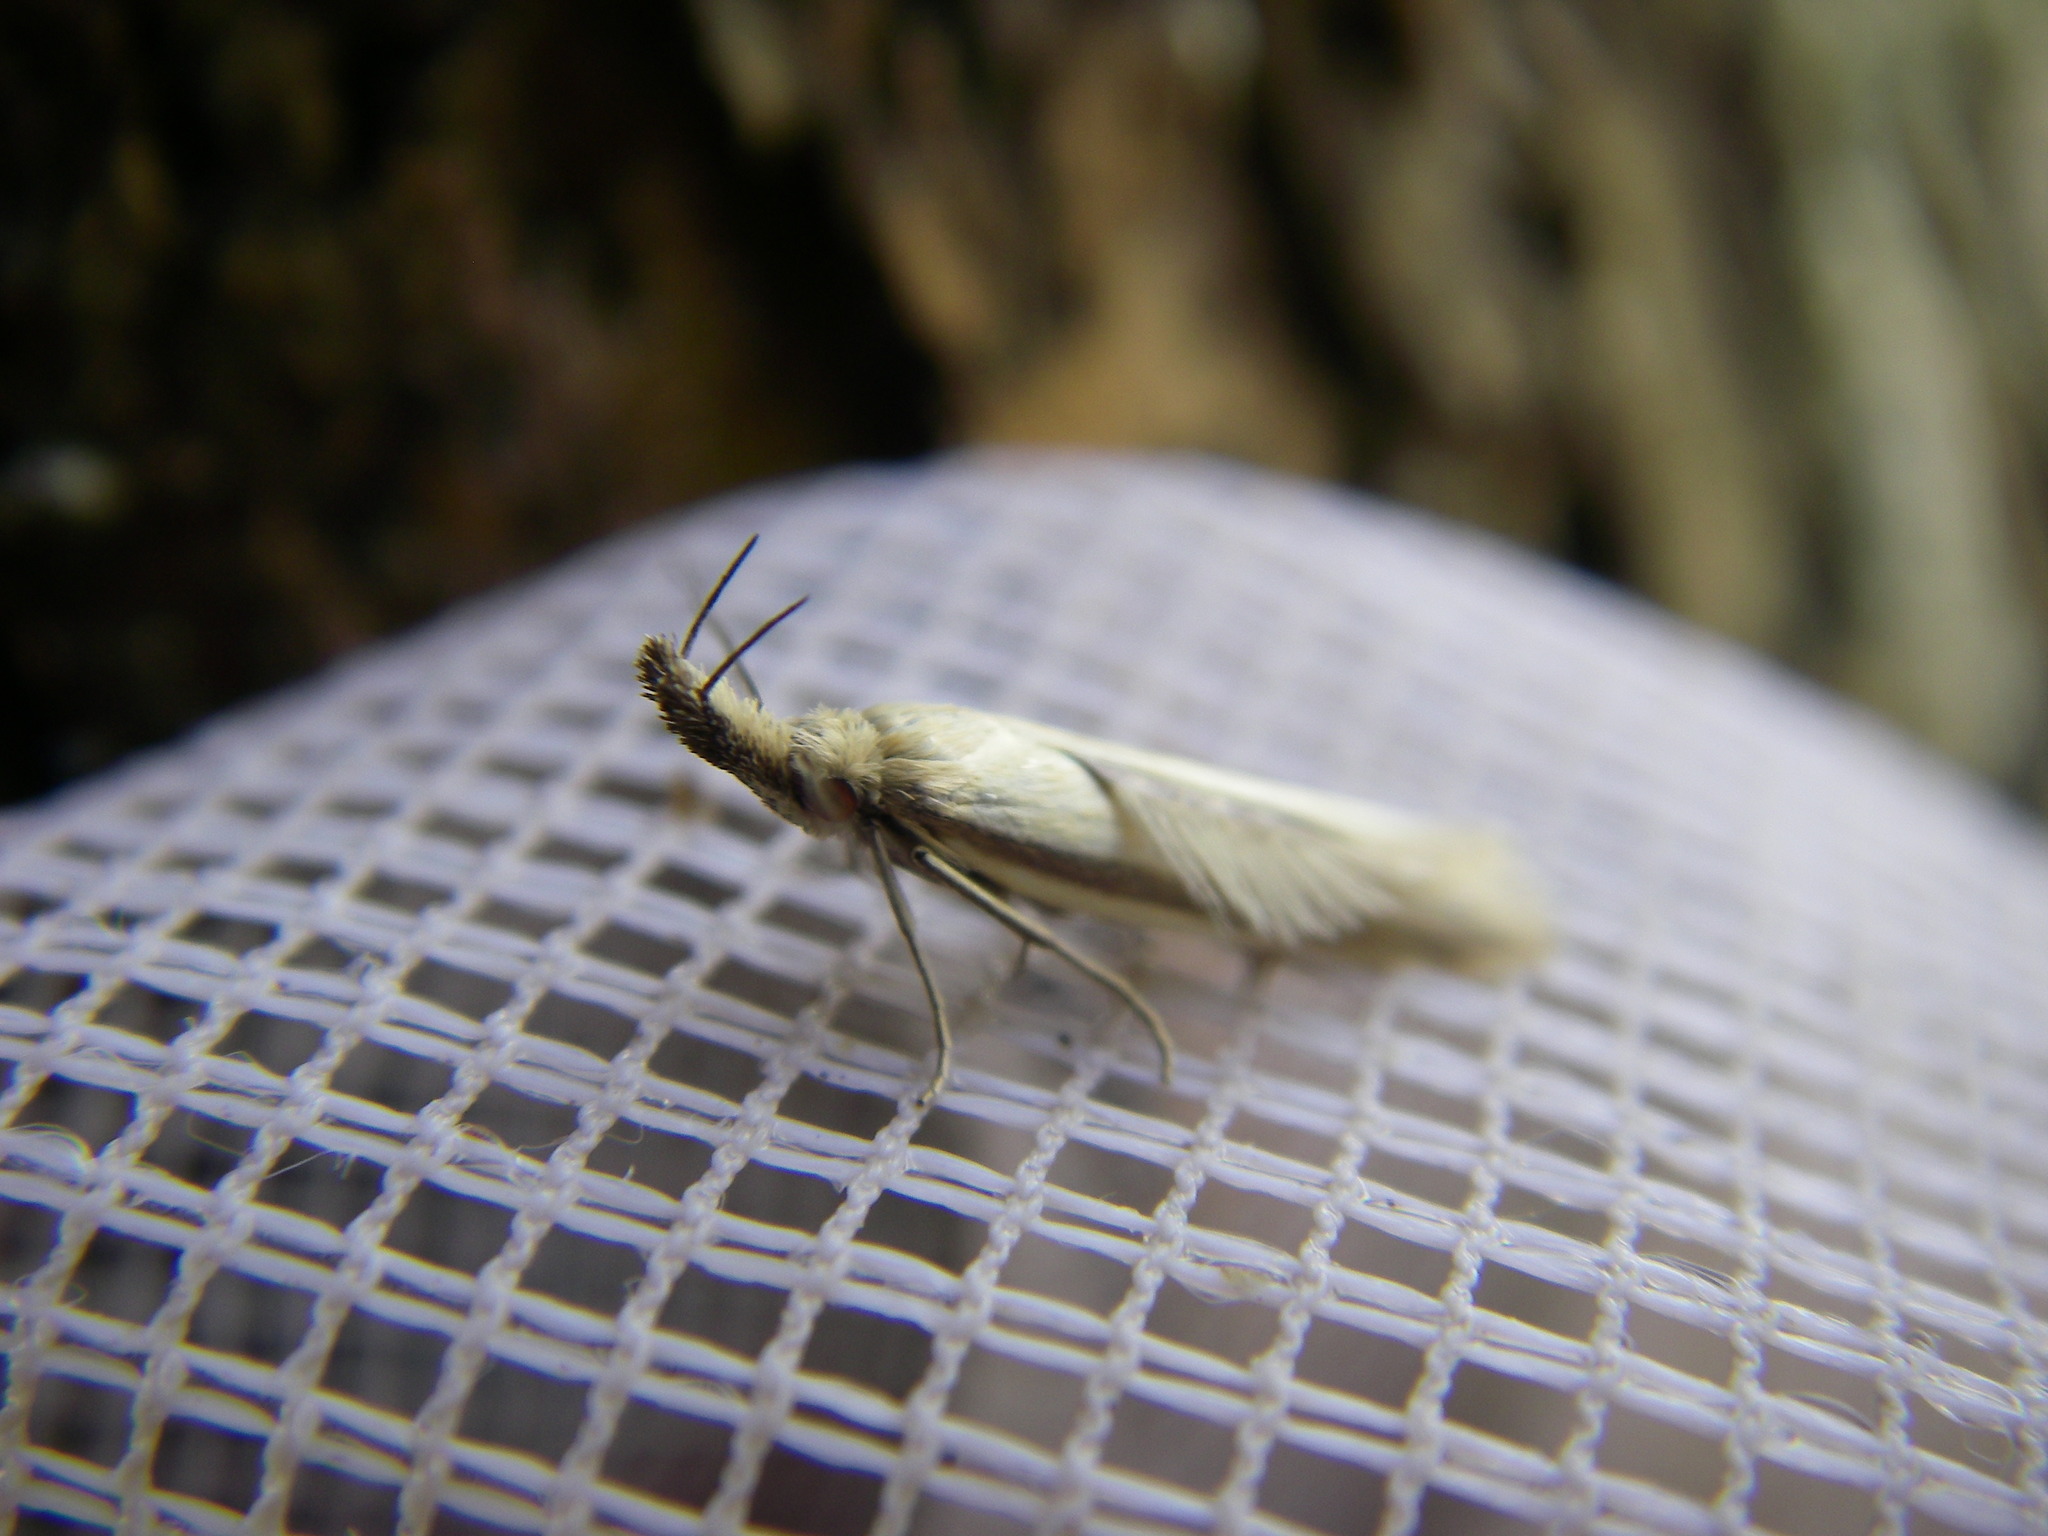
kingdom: Animalia
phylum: Arthropoda
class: Insecta
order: Lepidoptera
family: Oecophoridae
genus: Pleurota
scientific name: Pleurota pyropella
